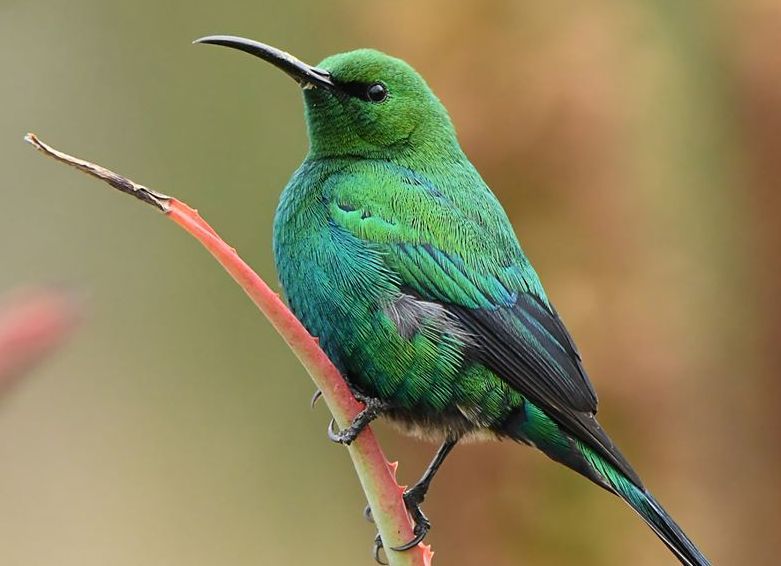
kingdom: Animalia
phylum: Chordata
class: Aves
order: Passeriformes
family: Nectariniidae
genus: Nectarinia
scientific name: Nectarinia famosa
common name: Malachite sunbird
